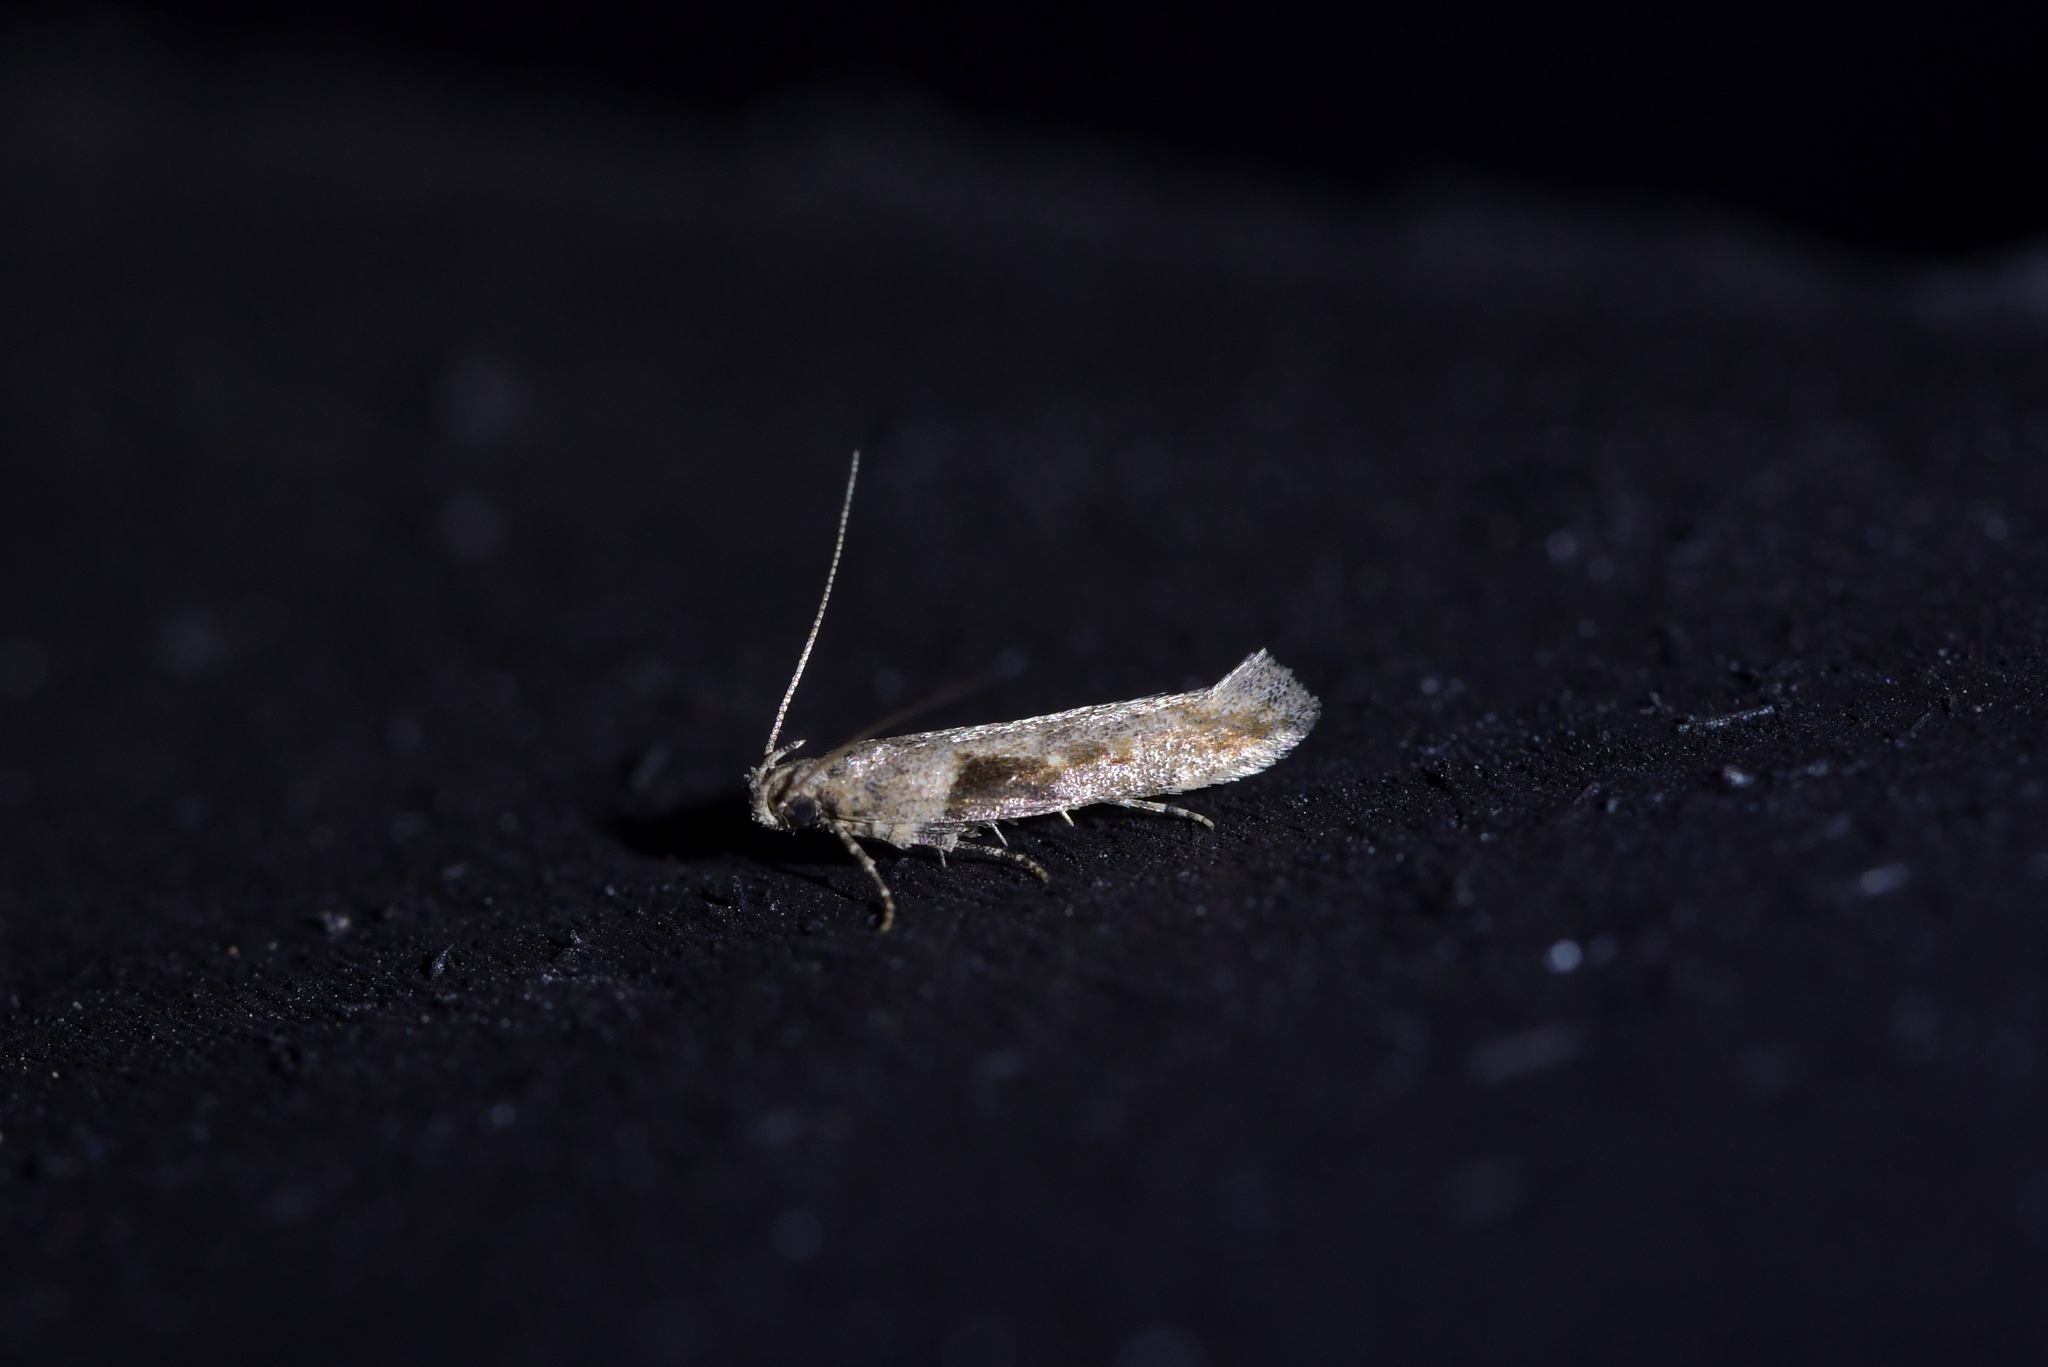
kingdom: Animalia
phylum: Arthropoda
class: Insecta
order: Lepidoptera
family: Gelechiidae
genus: Symmetrischema
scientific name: Symmetrischema tangolias
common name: Moth
